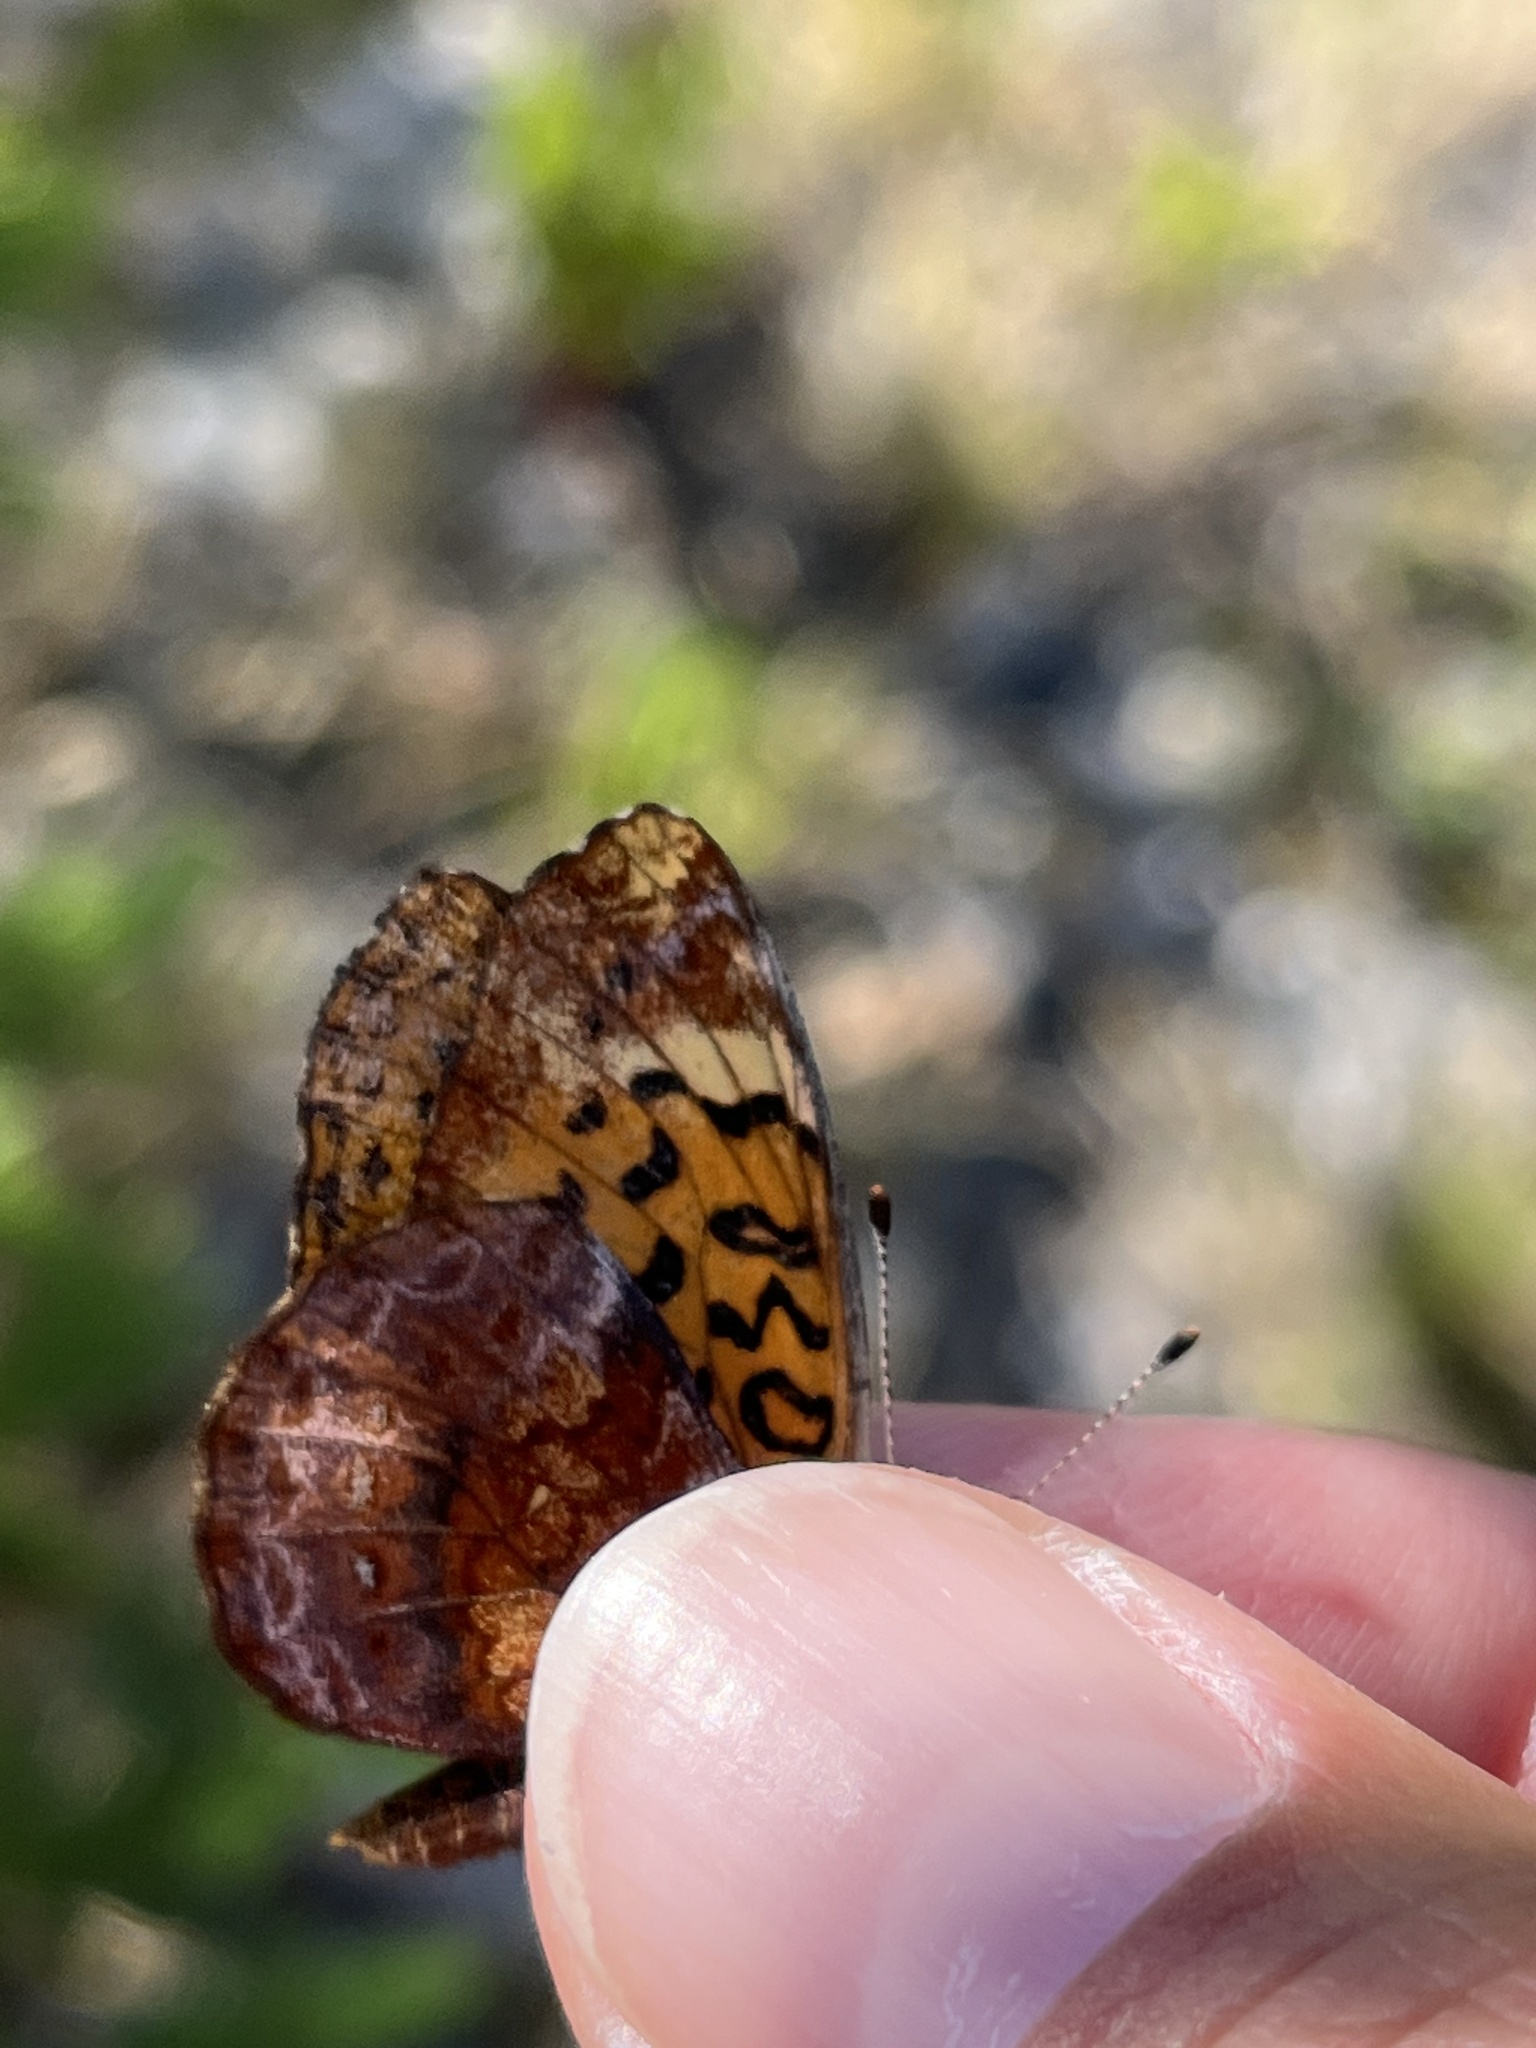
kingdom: Animalia
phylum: Arthropoda
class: Insecta
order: Lepidoptera
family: Nymphalidae
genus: Clossiana
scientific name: Clossiana toddi
